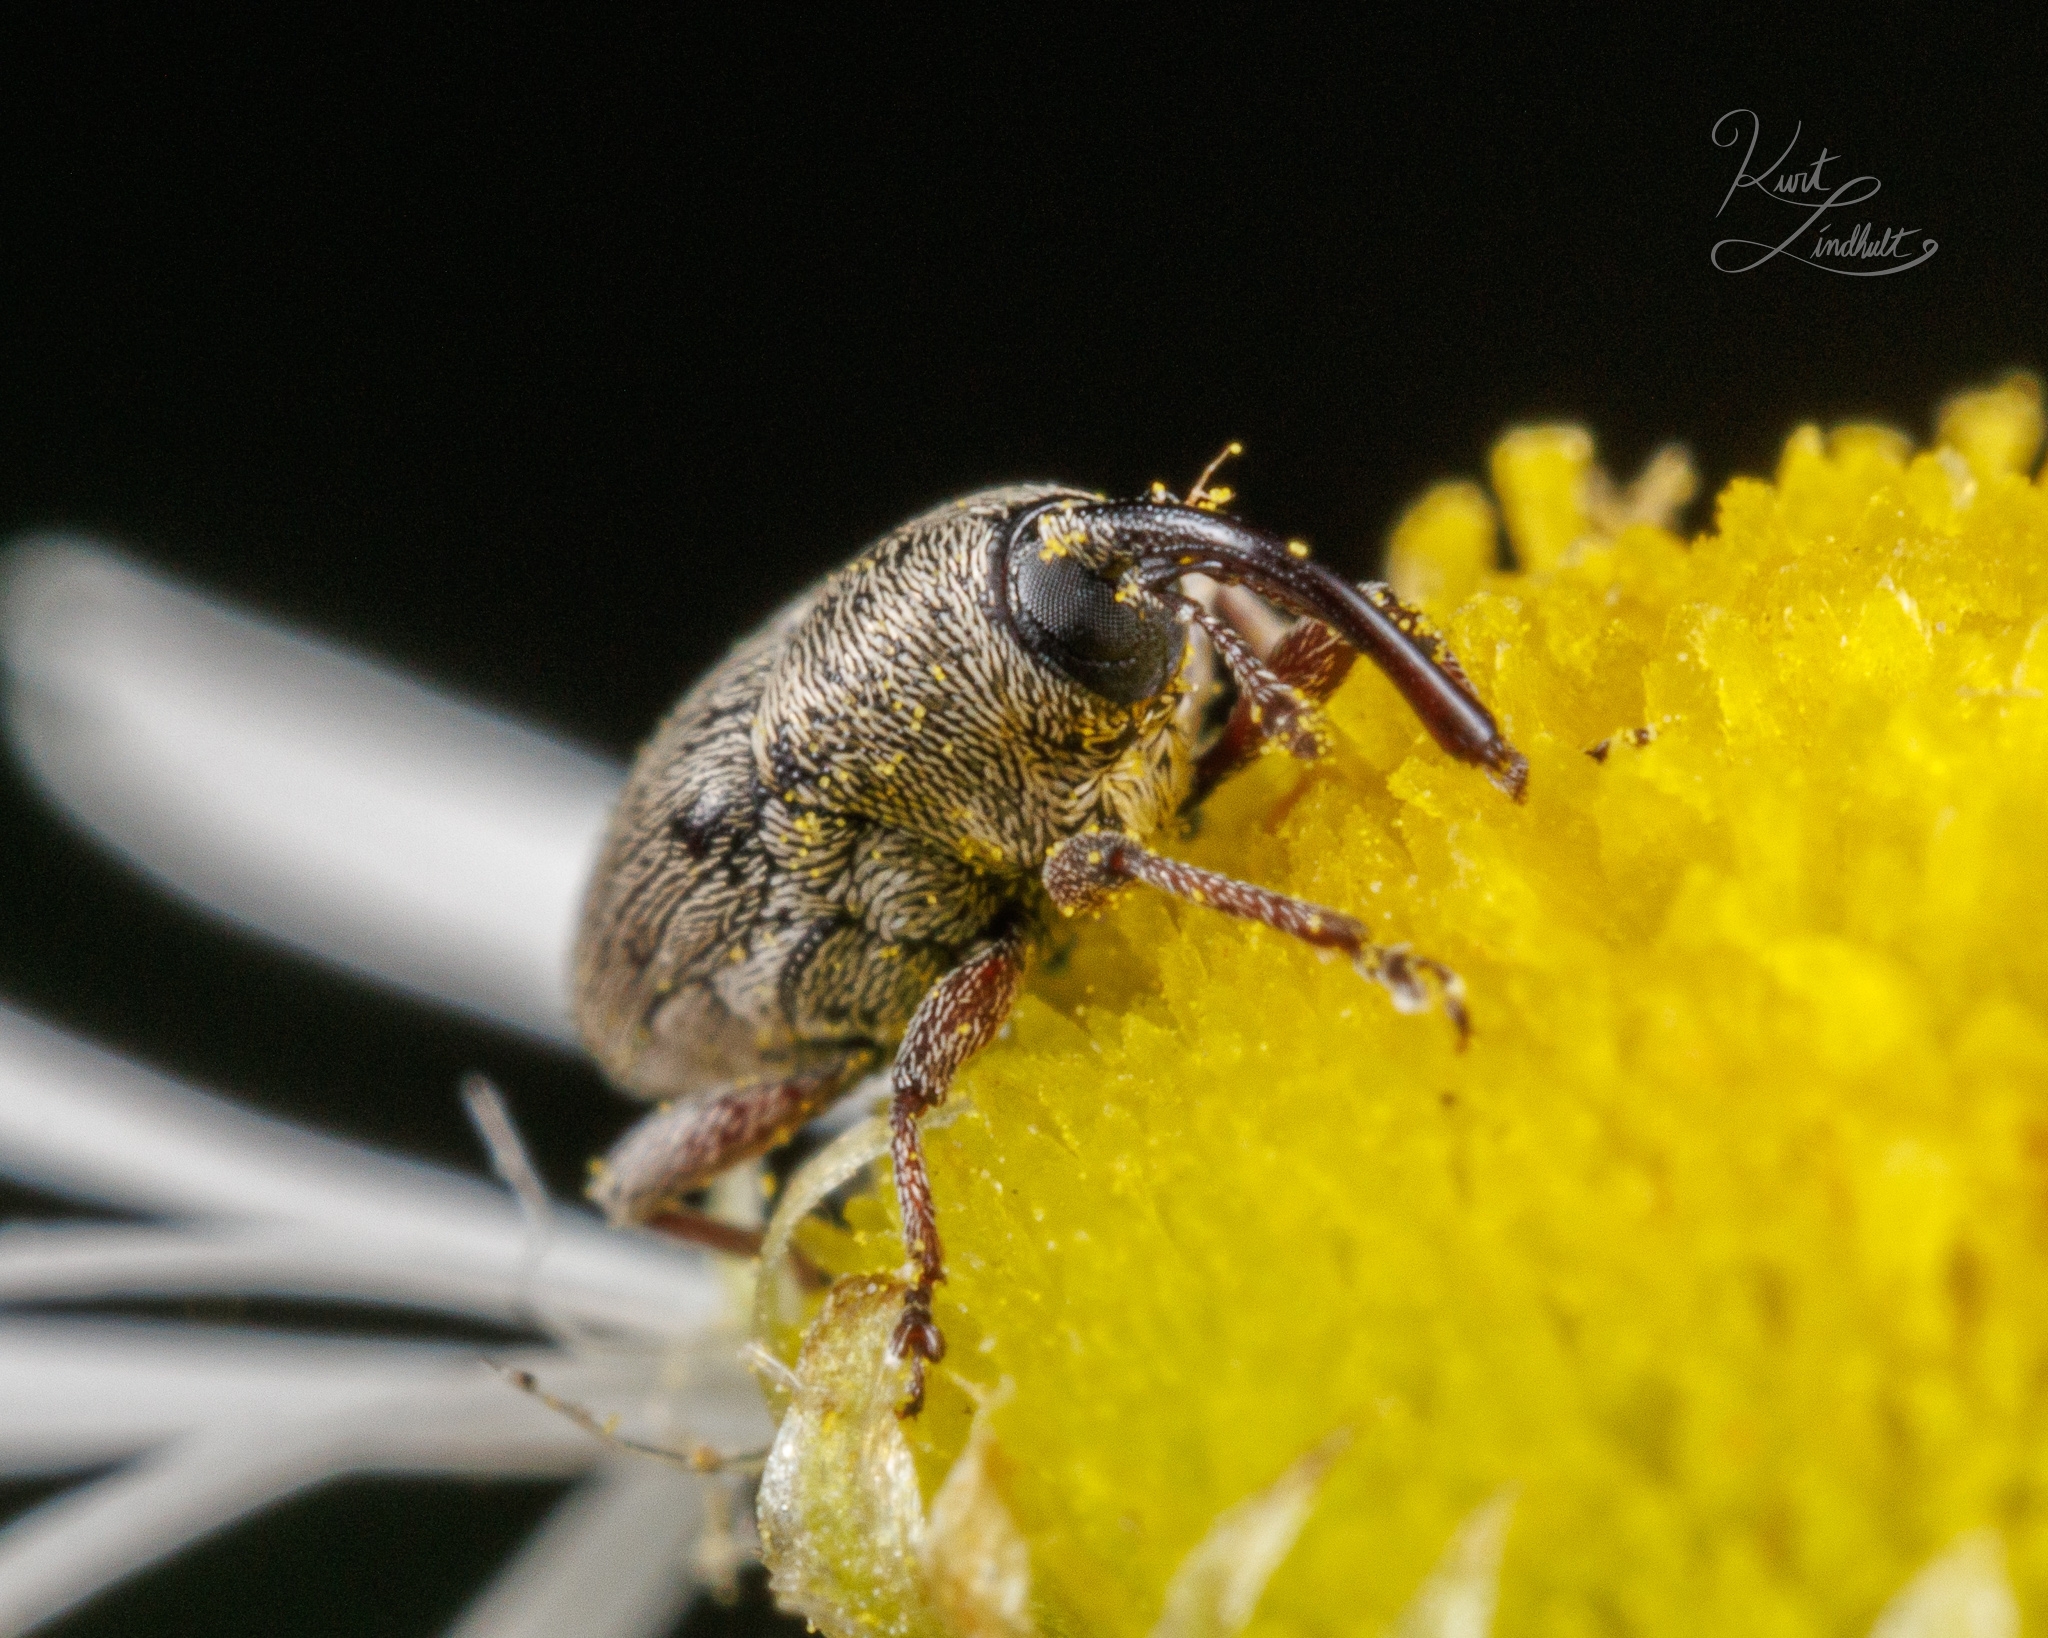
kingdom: Animalia
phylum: Arthropoda
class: Insecta
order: Coleoptera
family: Curculionidae
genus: Geraeus
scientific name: Geraeus picumnus
